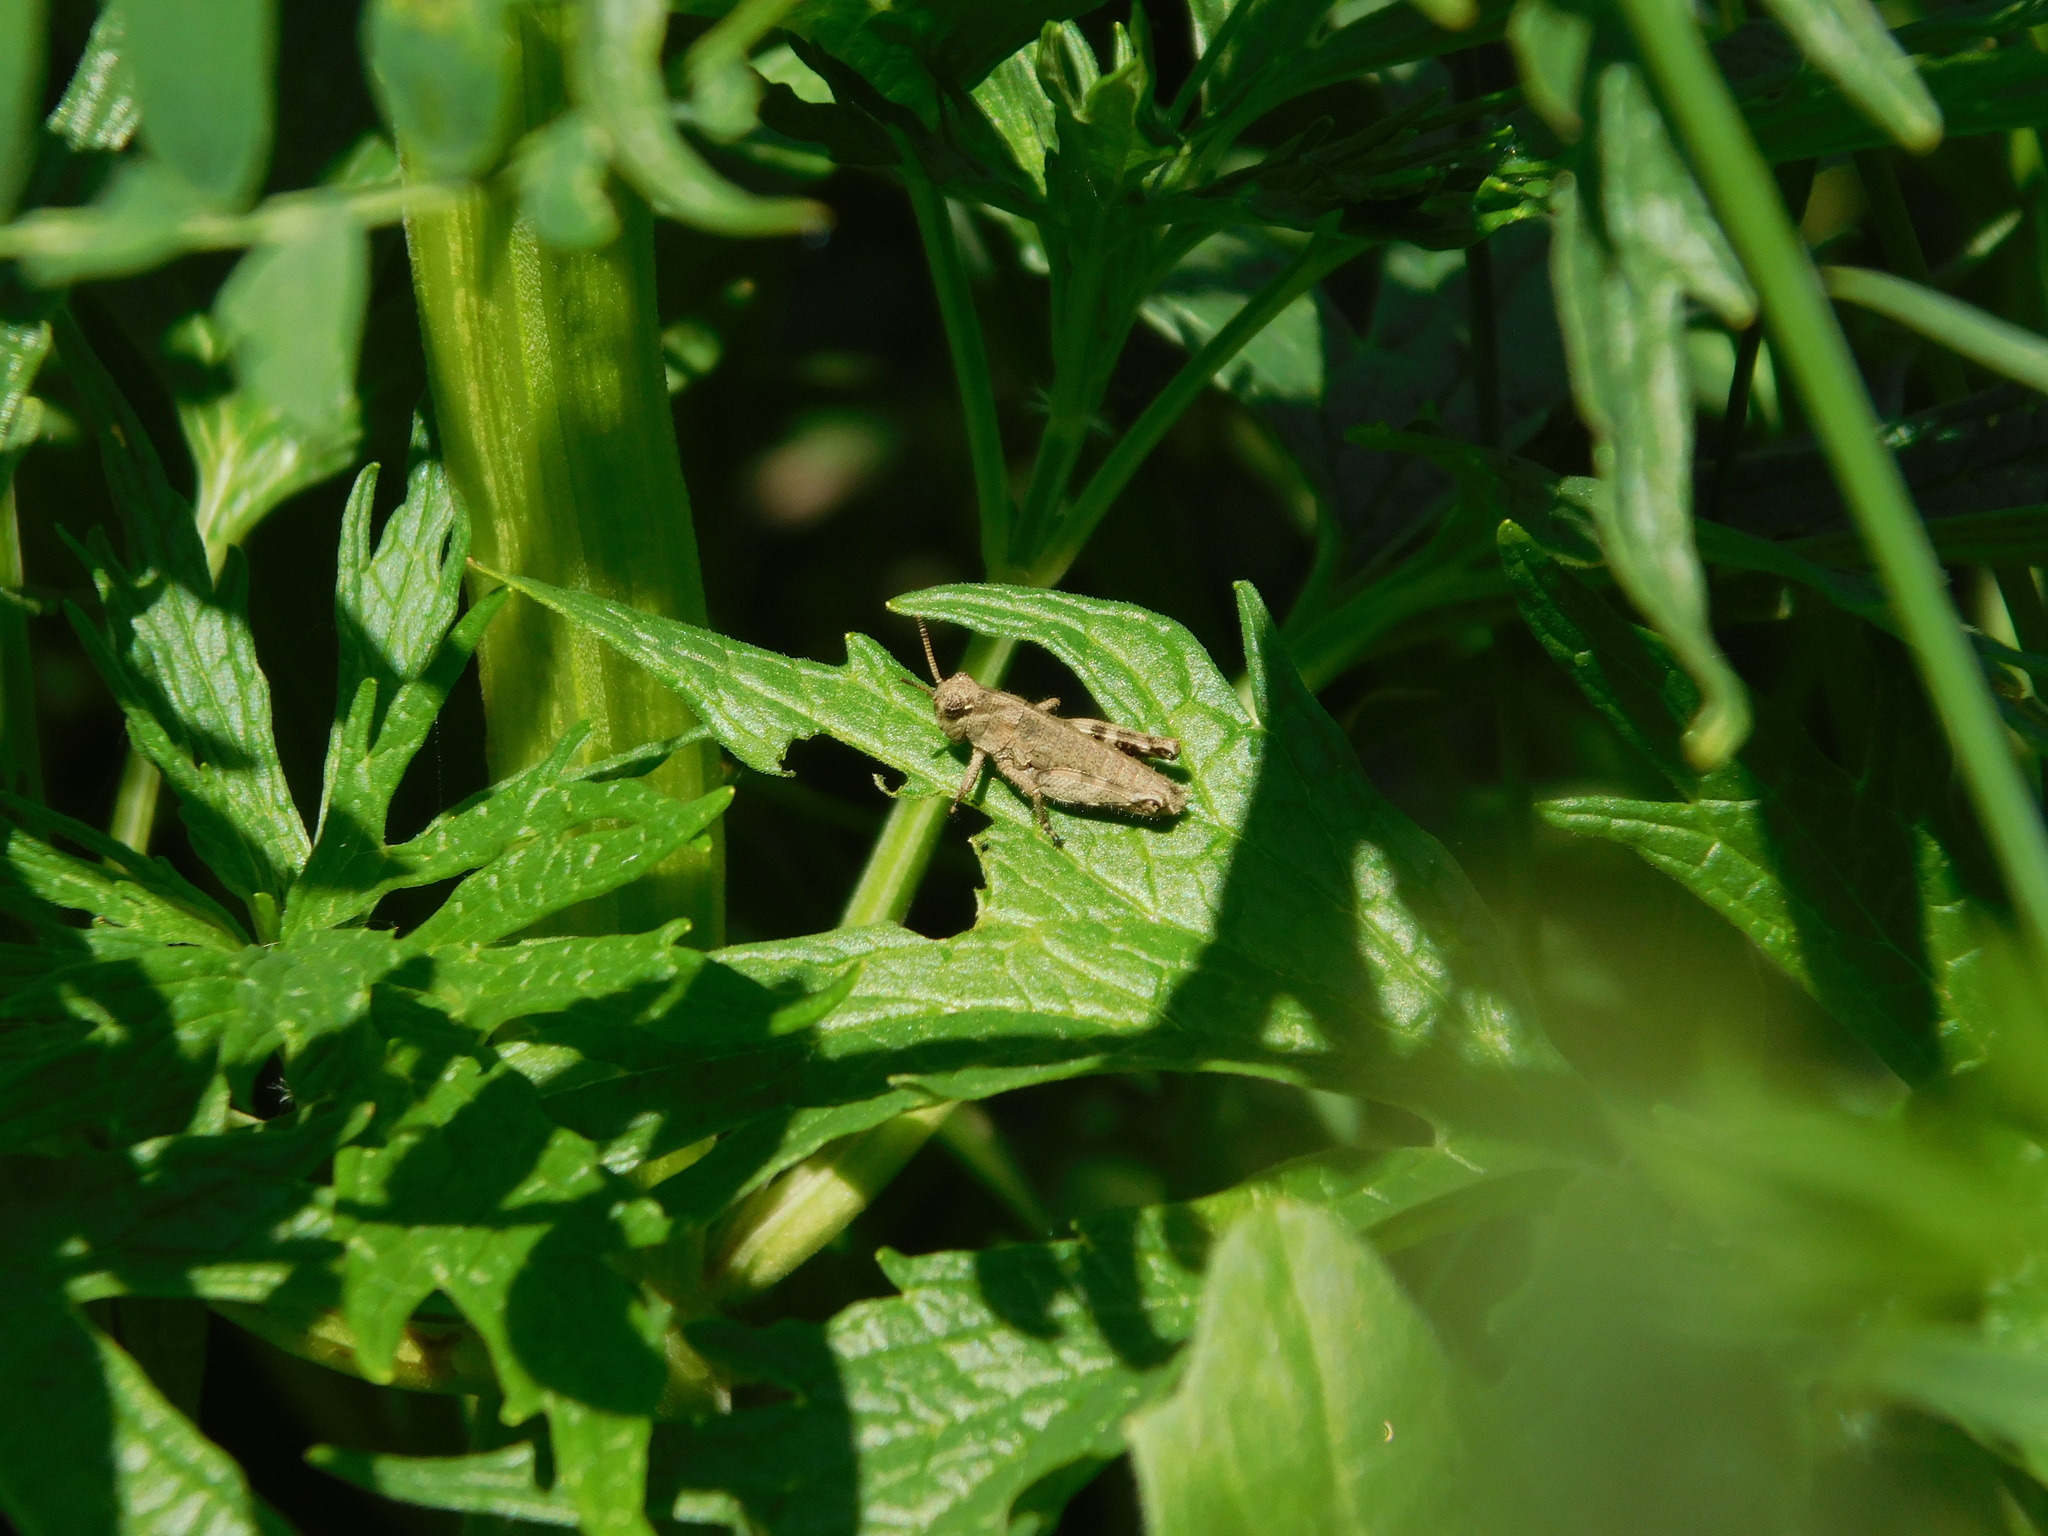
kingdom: Animalia
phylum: Arthropoda
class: Insecta
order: Orthoptera
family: Acrididae
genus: Podisma
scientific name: Podisma pedestris
